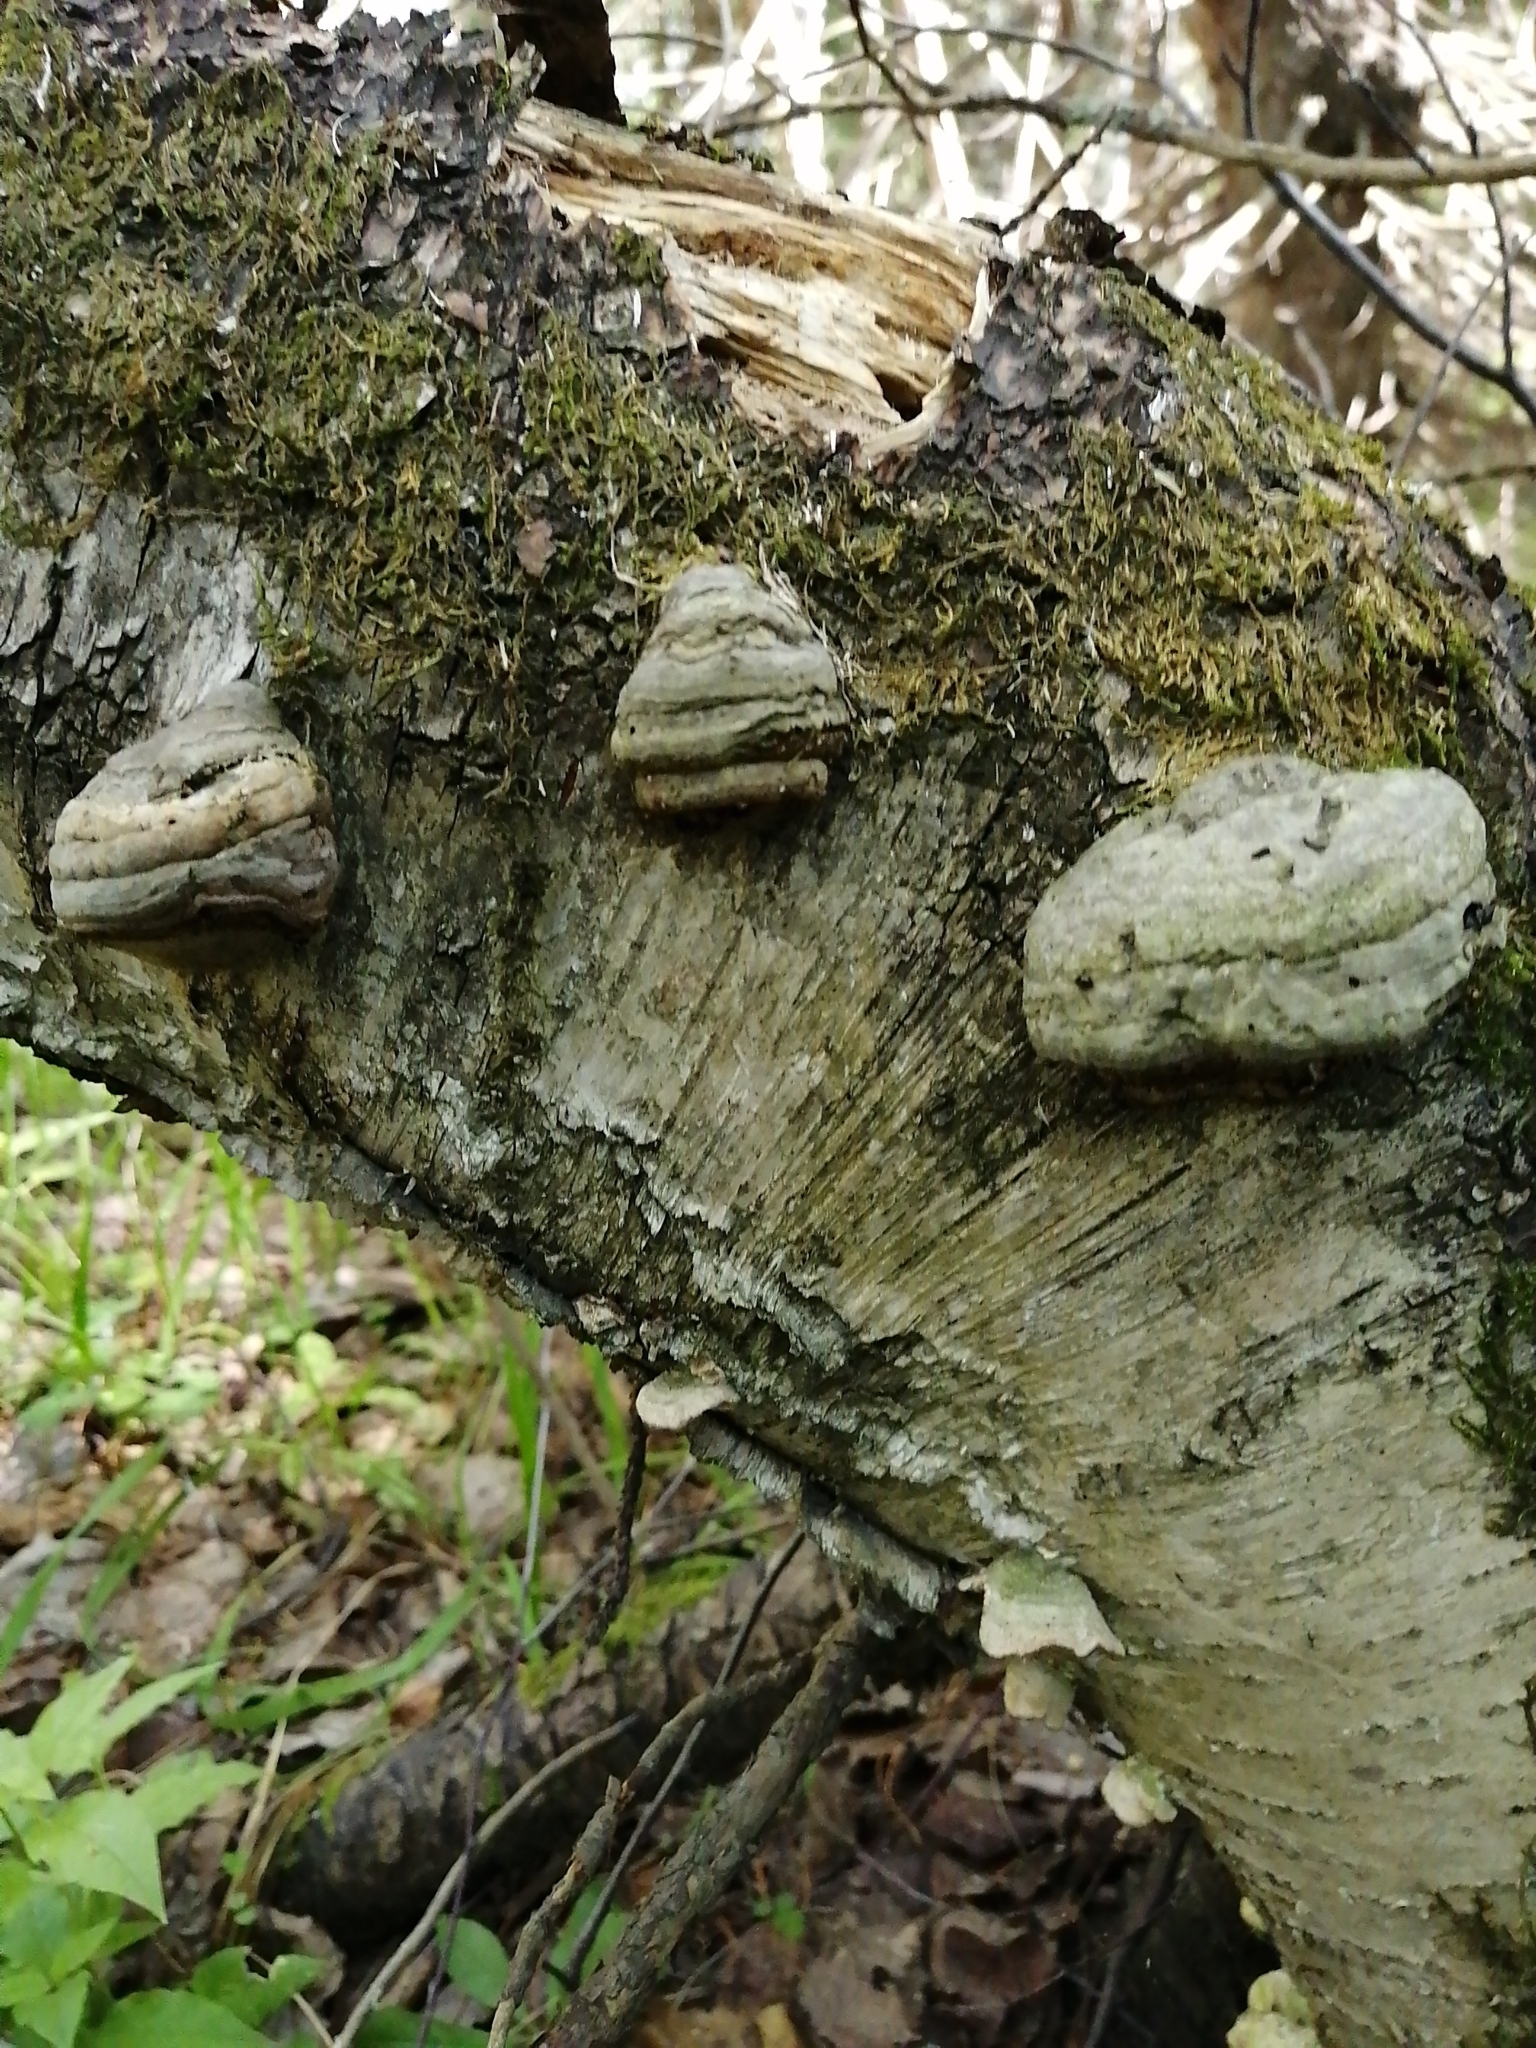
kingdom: Fungi
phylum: Basidiomycota
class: Agaricomycetes
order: Polyporales
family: Polyporaceae
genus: Fomes
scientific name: Fomes fomentarius
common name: Hoof fungus
